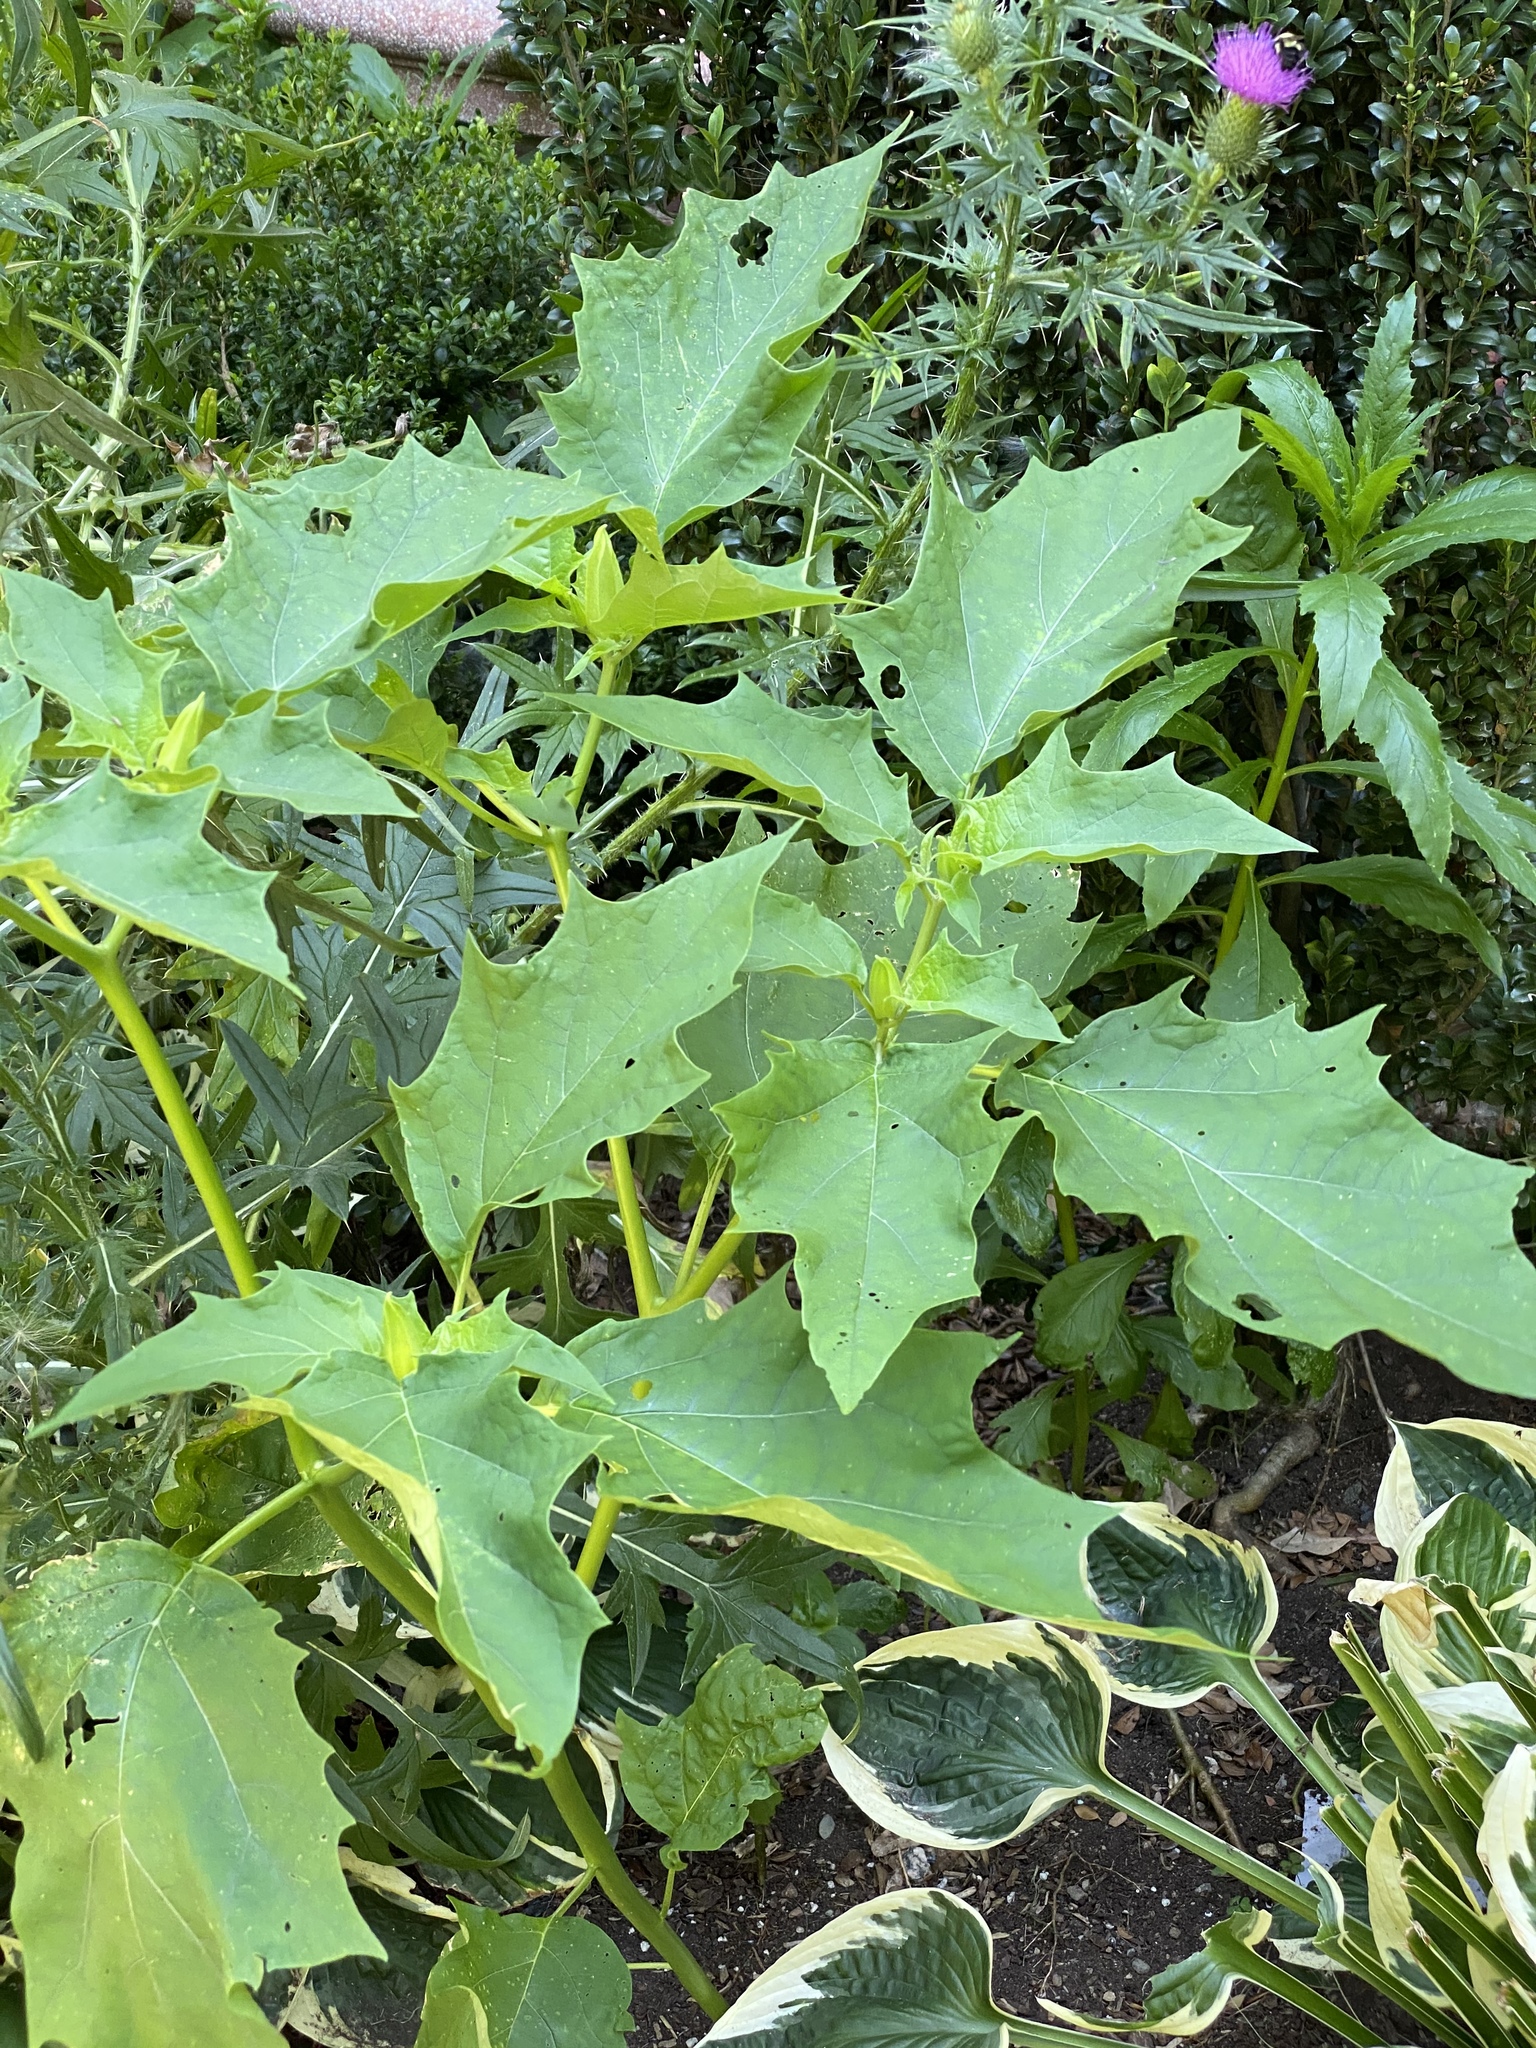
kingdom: Plantae
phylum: Tracheophyta
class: Magnoliopsida
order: Solanales
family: Solanaceae
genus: Datura
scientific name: Datura stramonium
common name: Thorn-apple
